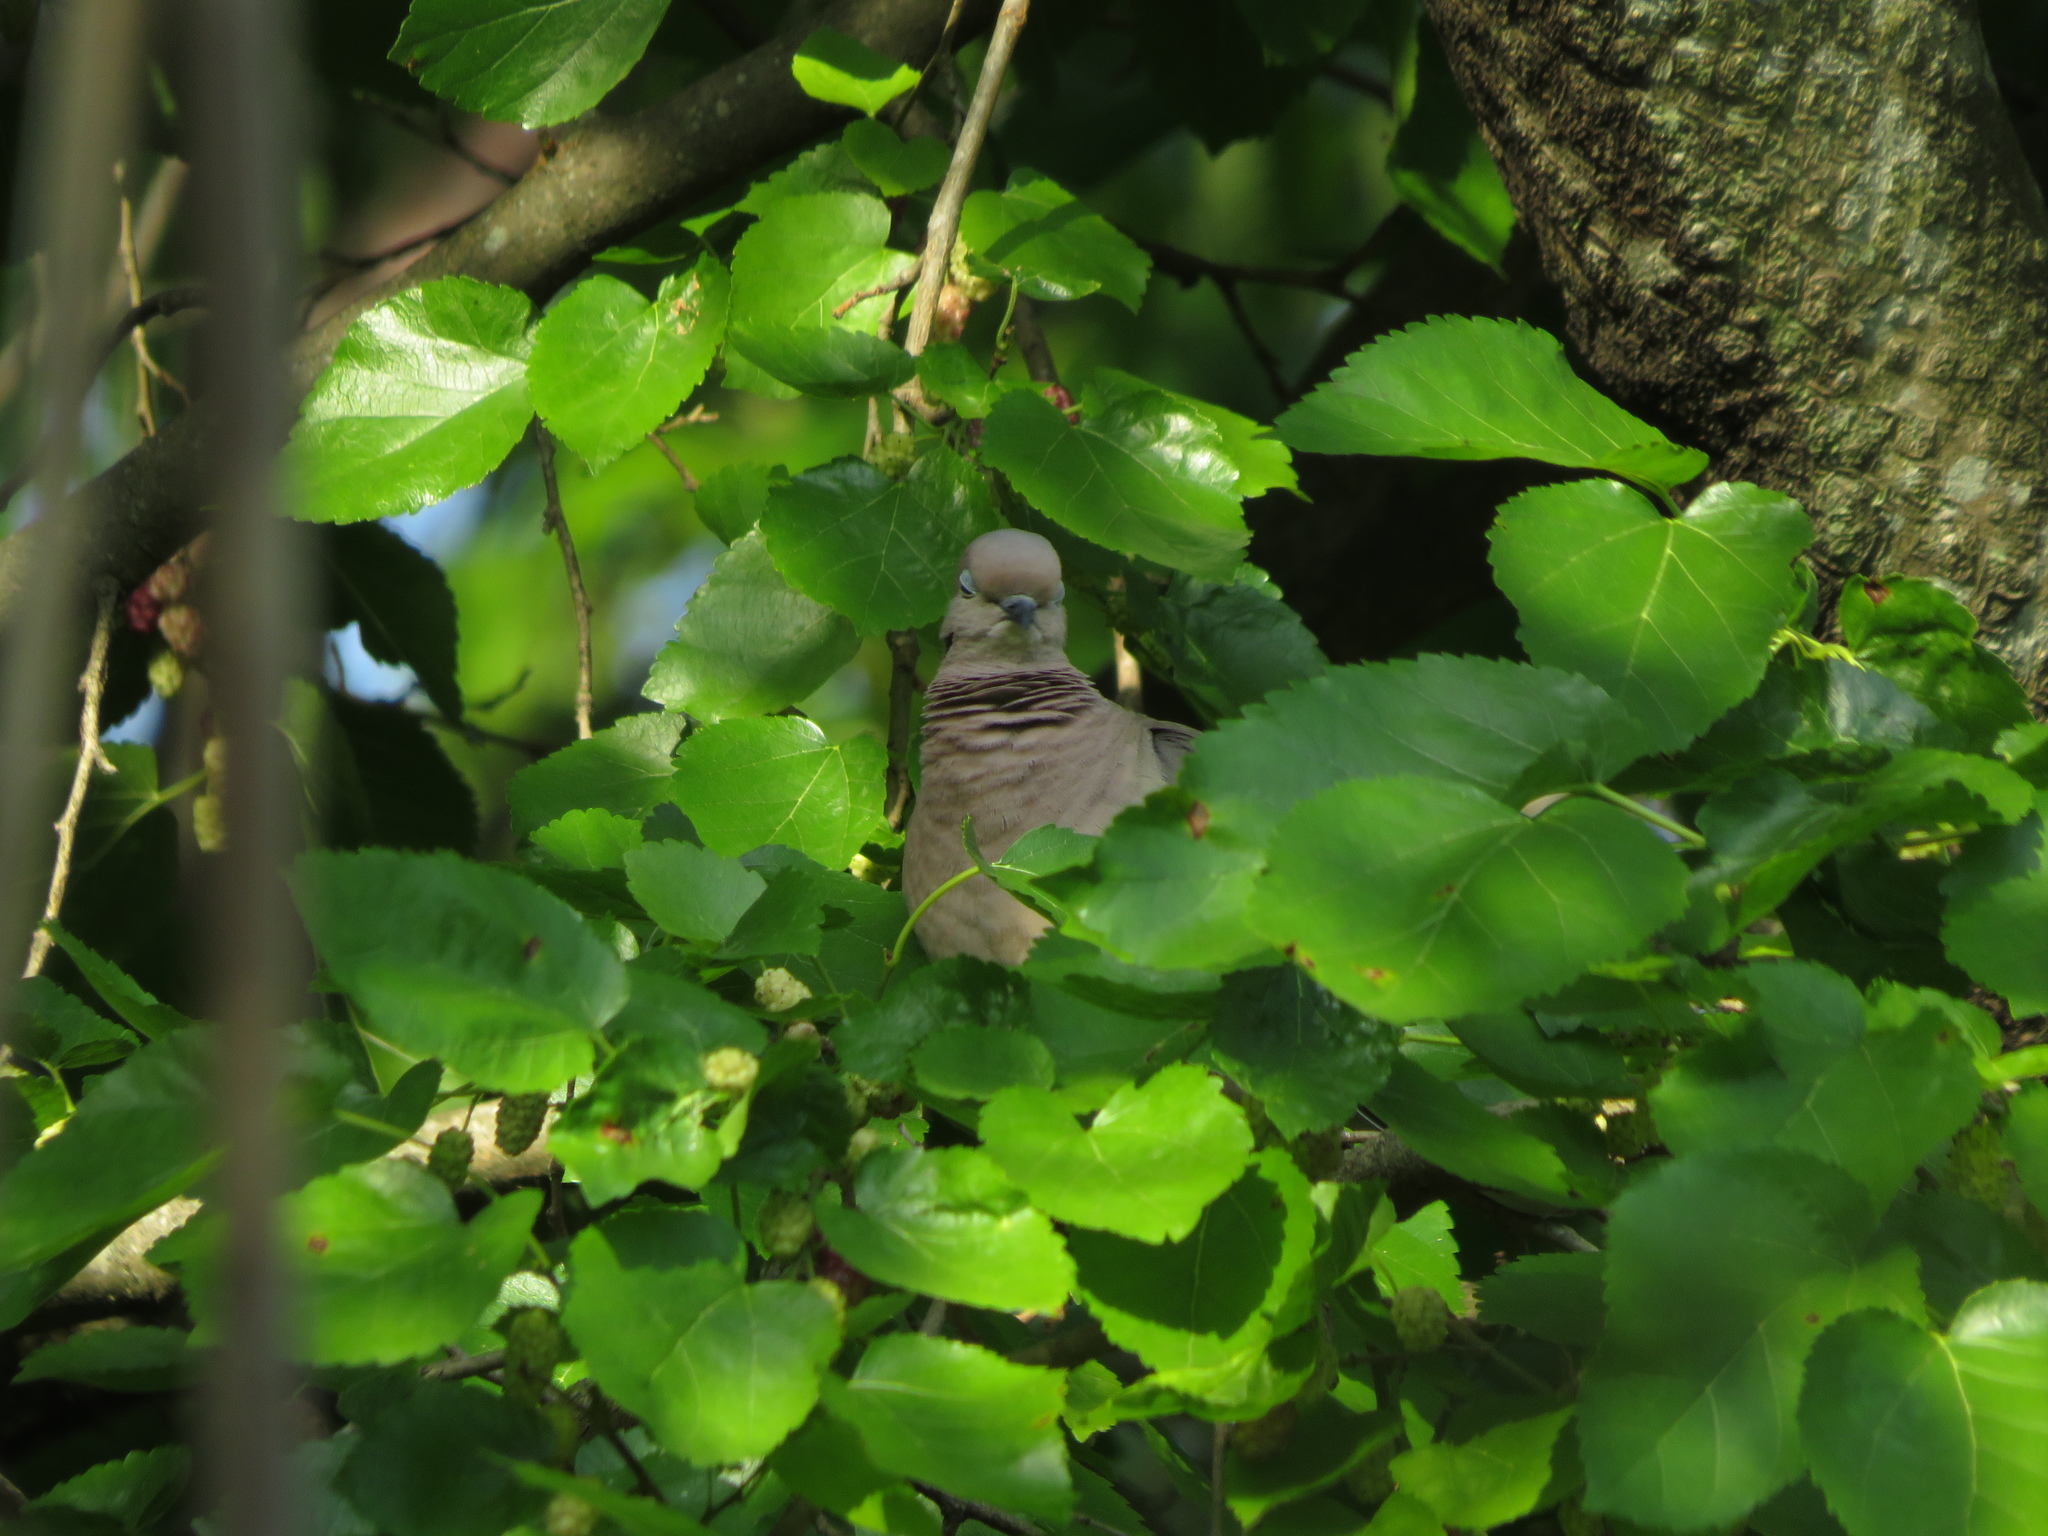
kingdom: Animalia
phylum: Chordata
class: Aves
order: Columbiformes
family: Columbidae
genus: Zenaida
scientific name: Zenaida auriculata
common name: Eared dove
